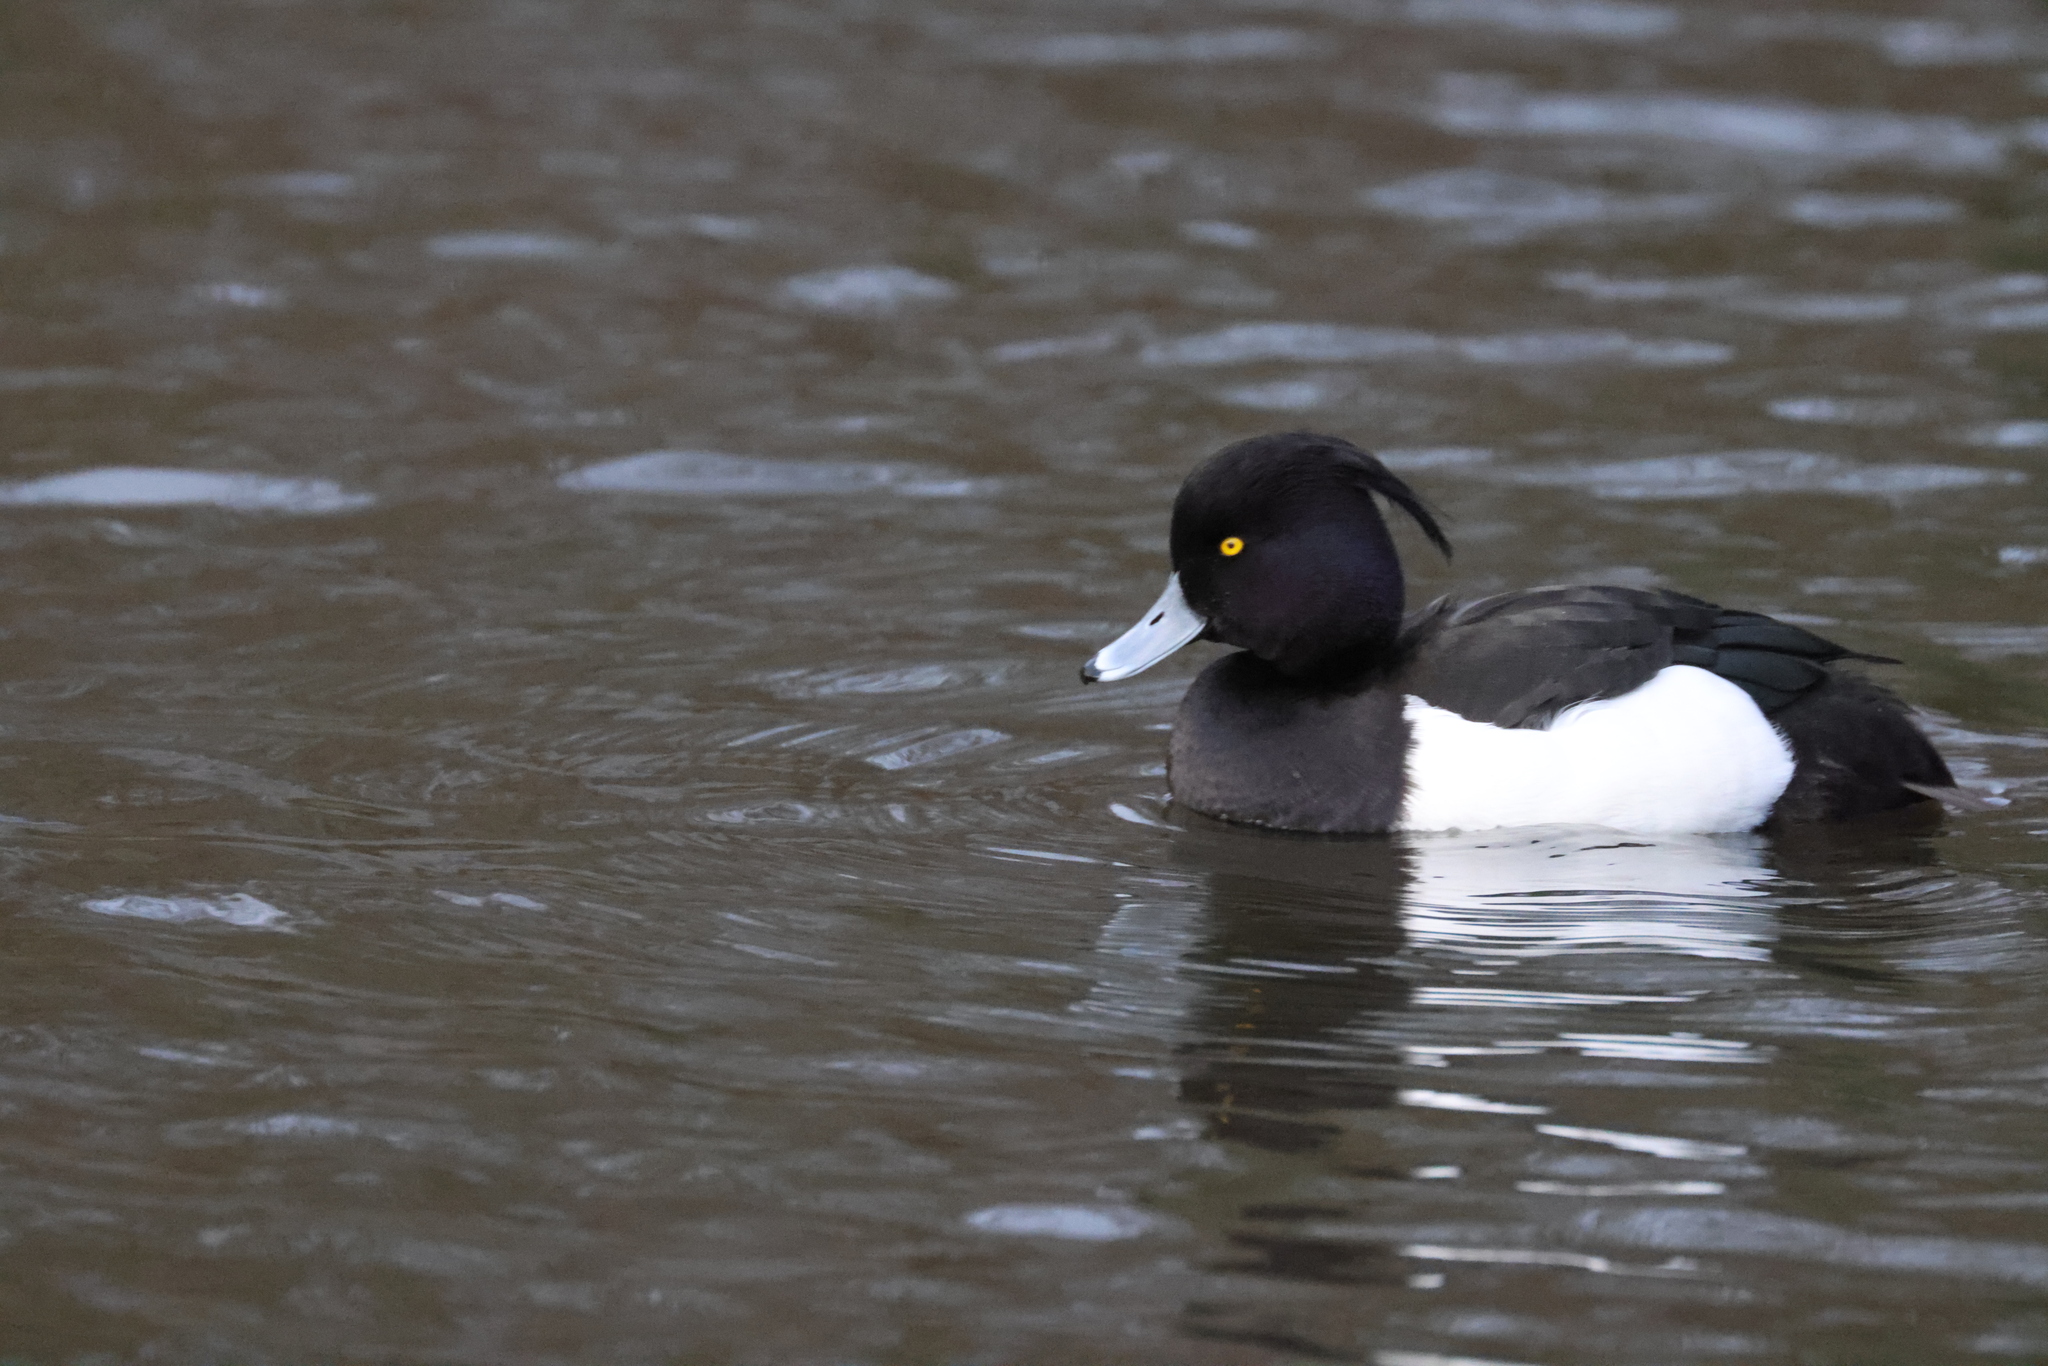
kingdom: Animalia
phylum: Chordata
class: Aves
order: Anseriformes
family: Anatidae
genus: Aythya
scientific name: Aythya fuligula
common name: Tufted duck
